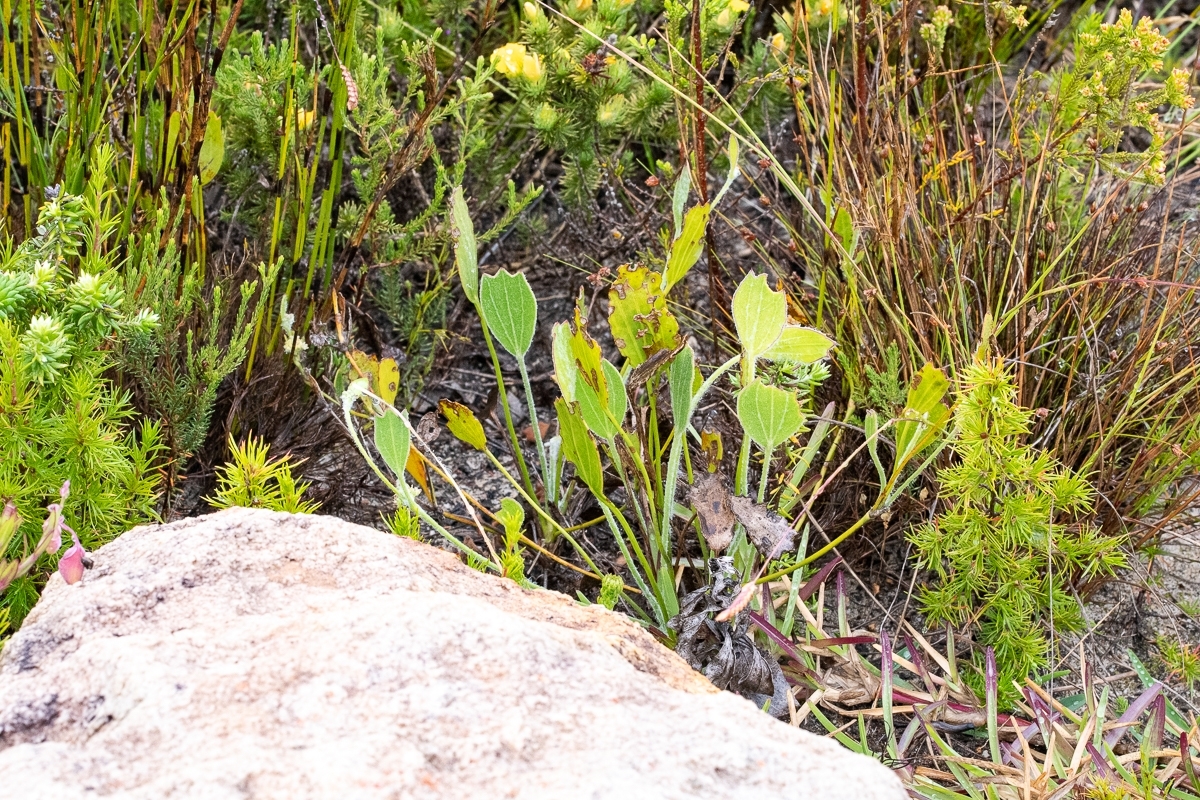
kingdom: Plantae
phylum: Tracheophyta
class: Magnoliopsida
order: Apiales
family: Apiaceae
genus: Centella
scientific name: Centella difformis
